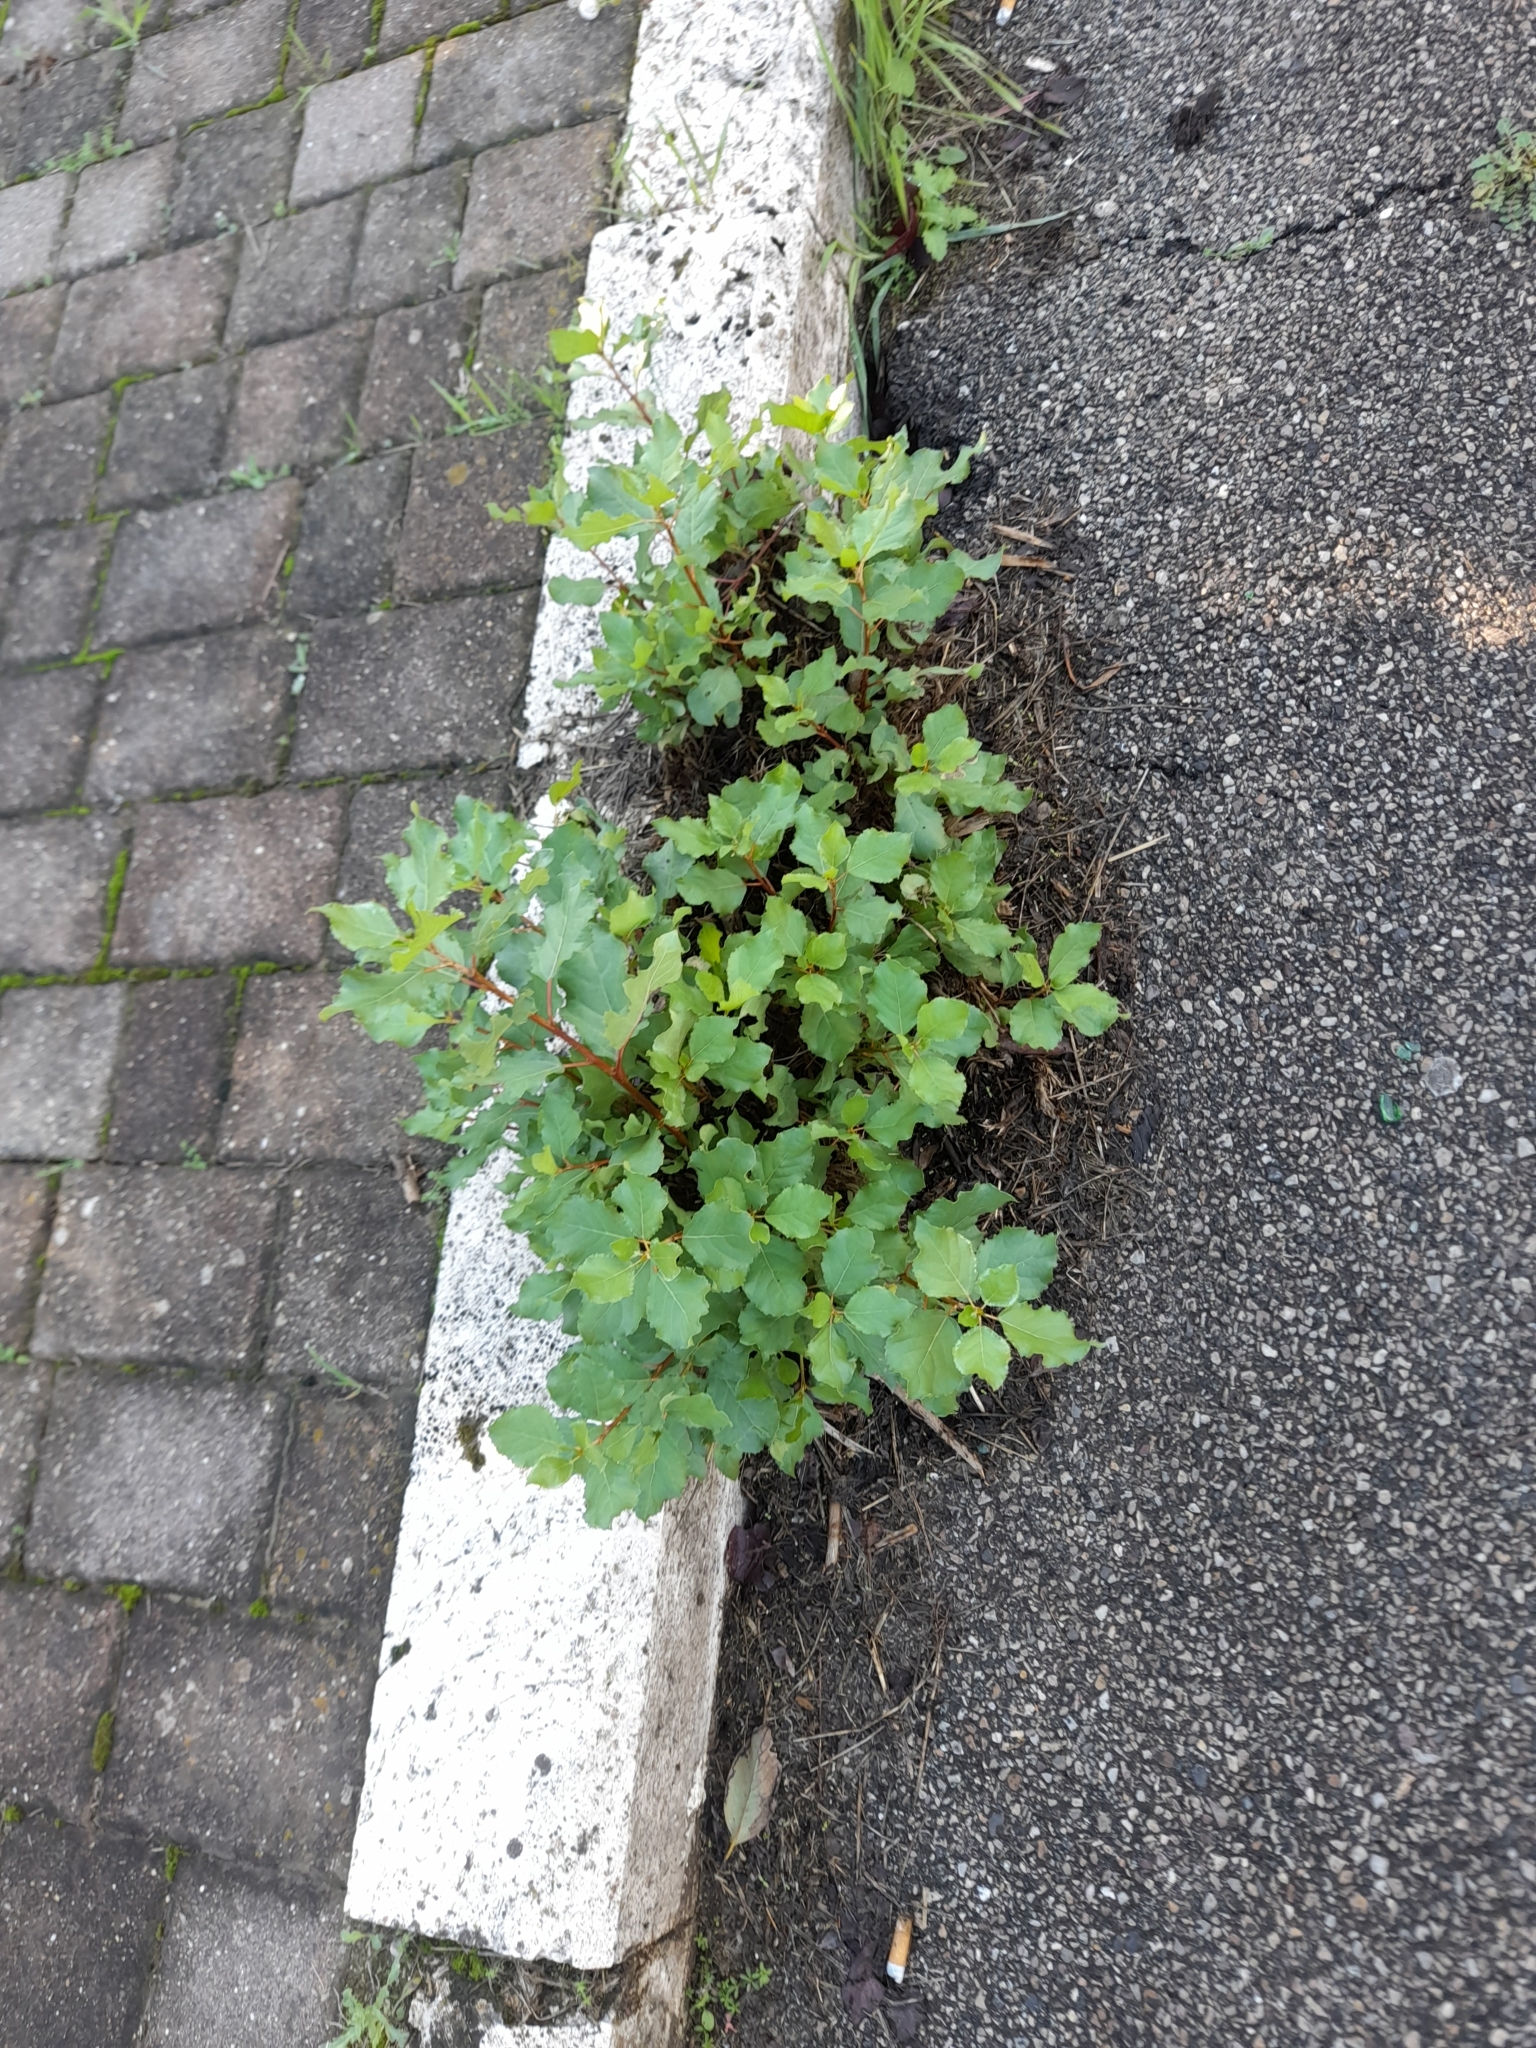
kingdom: Plantae
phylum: Tracheophyta
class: Magnoliopsida
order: Malpighiales
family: Salicaceae
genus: Populus
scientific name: Populus nigra
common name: Black poplar
